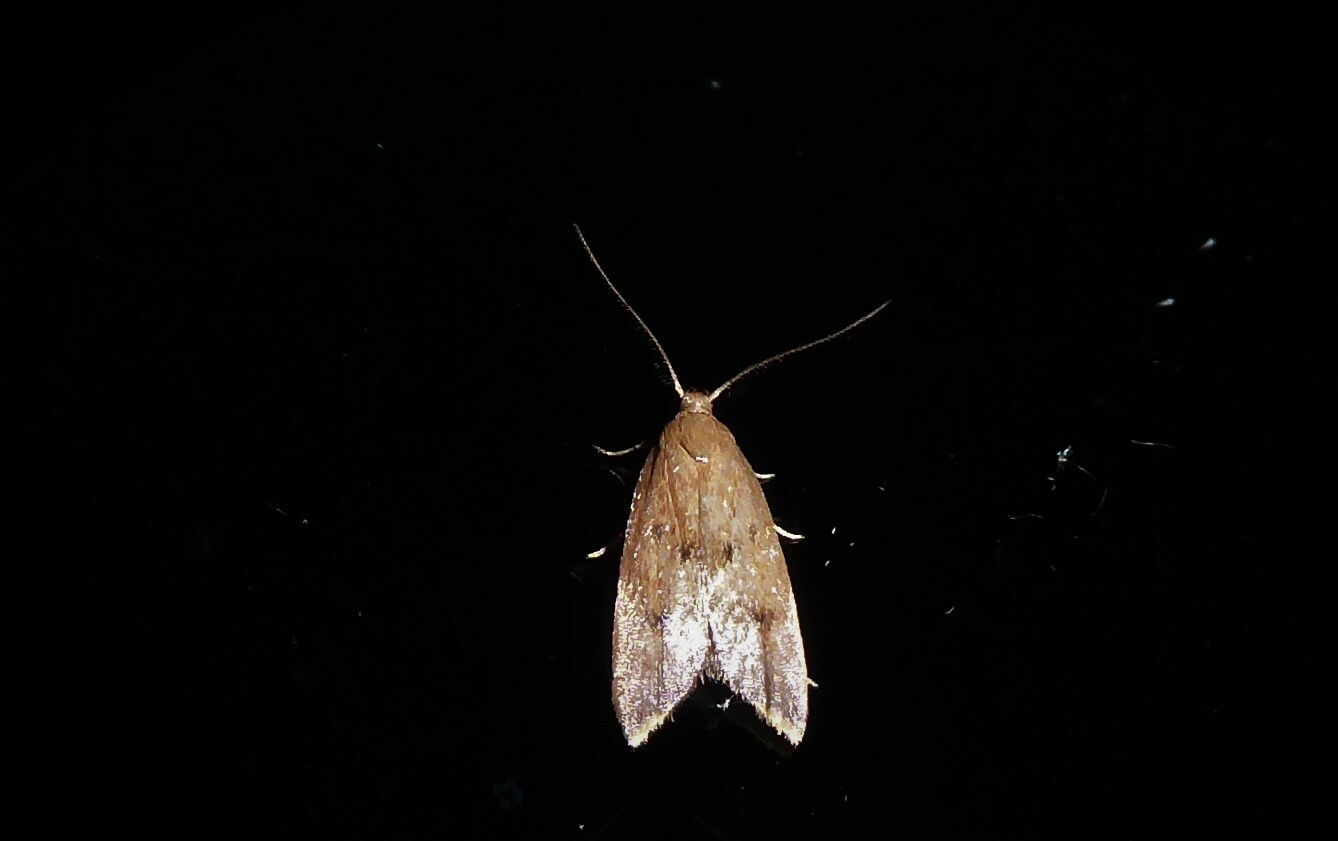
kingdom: Animalia
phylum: Arthropoda
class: Insecta
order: Lepidoptera
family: Oecophoridae
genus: Tachystola
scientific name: Tachystola acroxantha
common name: Ruddy streak
